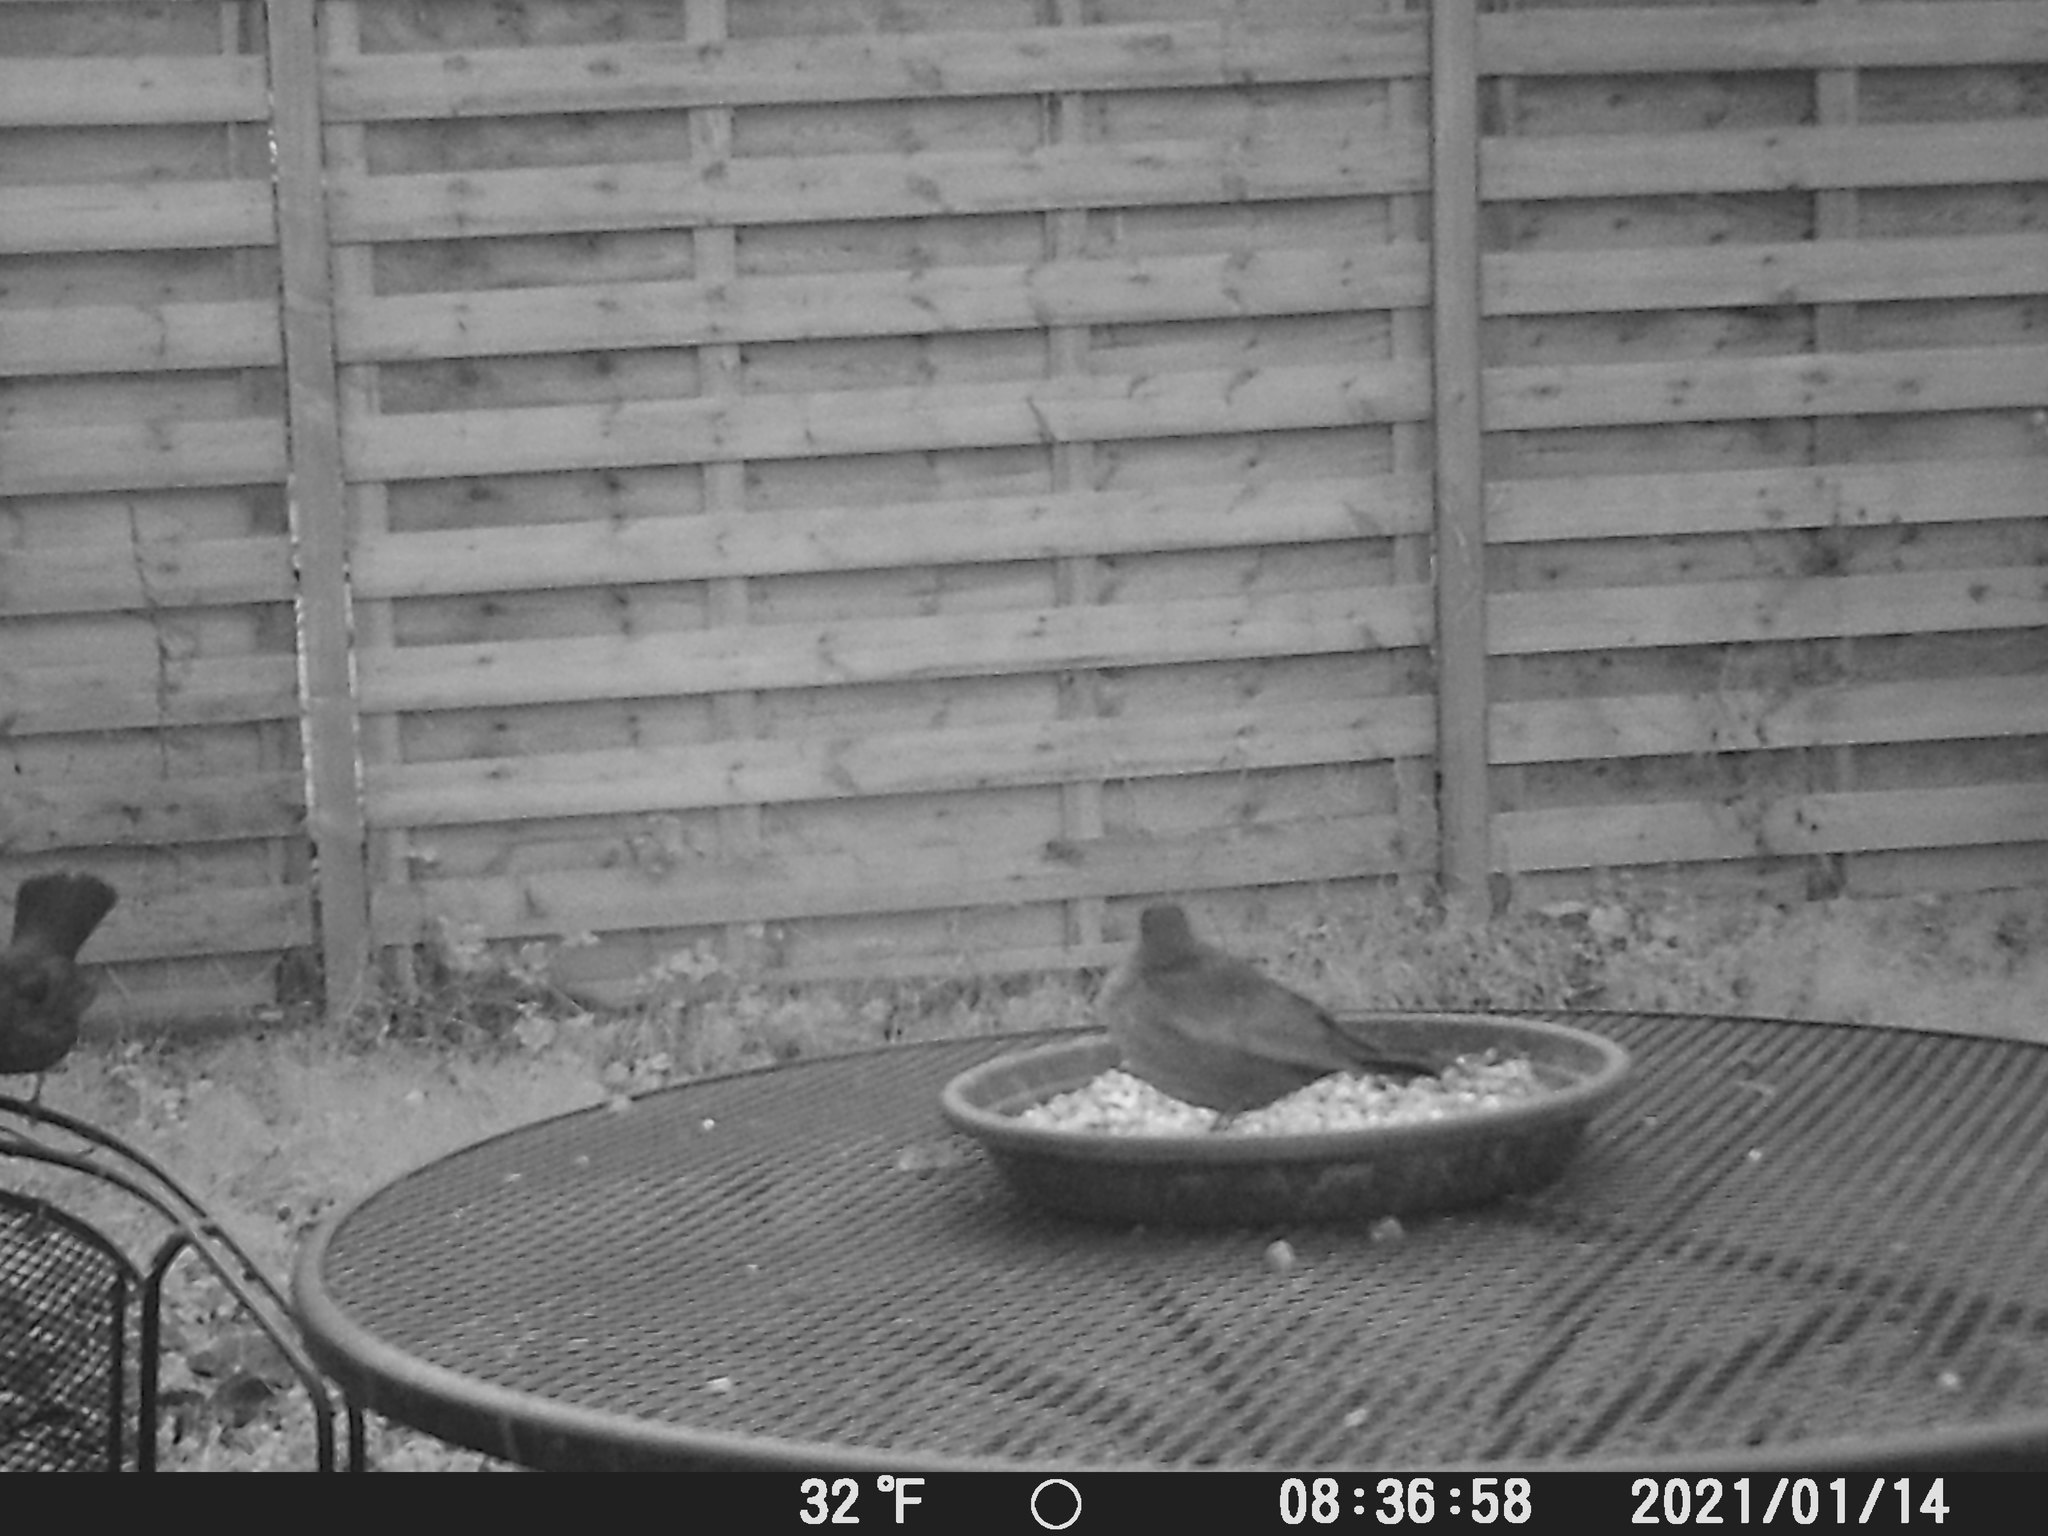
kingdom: Animalia
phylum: Chordata
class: Aves
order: Passeriformes
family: Turdidae
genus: Turdus
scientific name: Turdus merula
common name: Common blackbird
